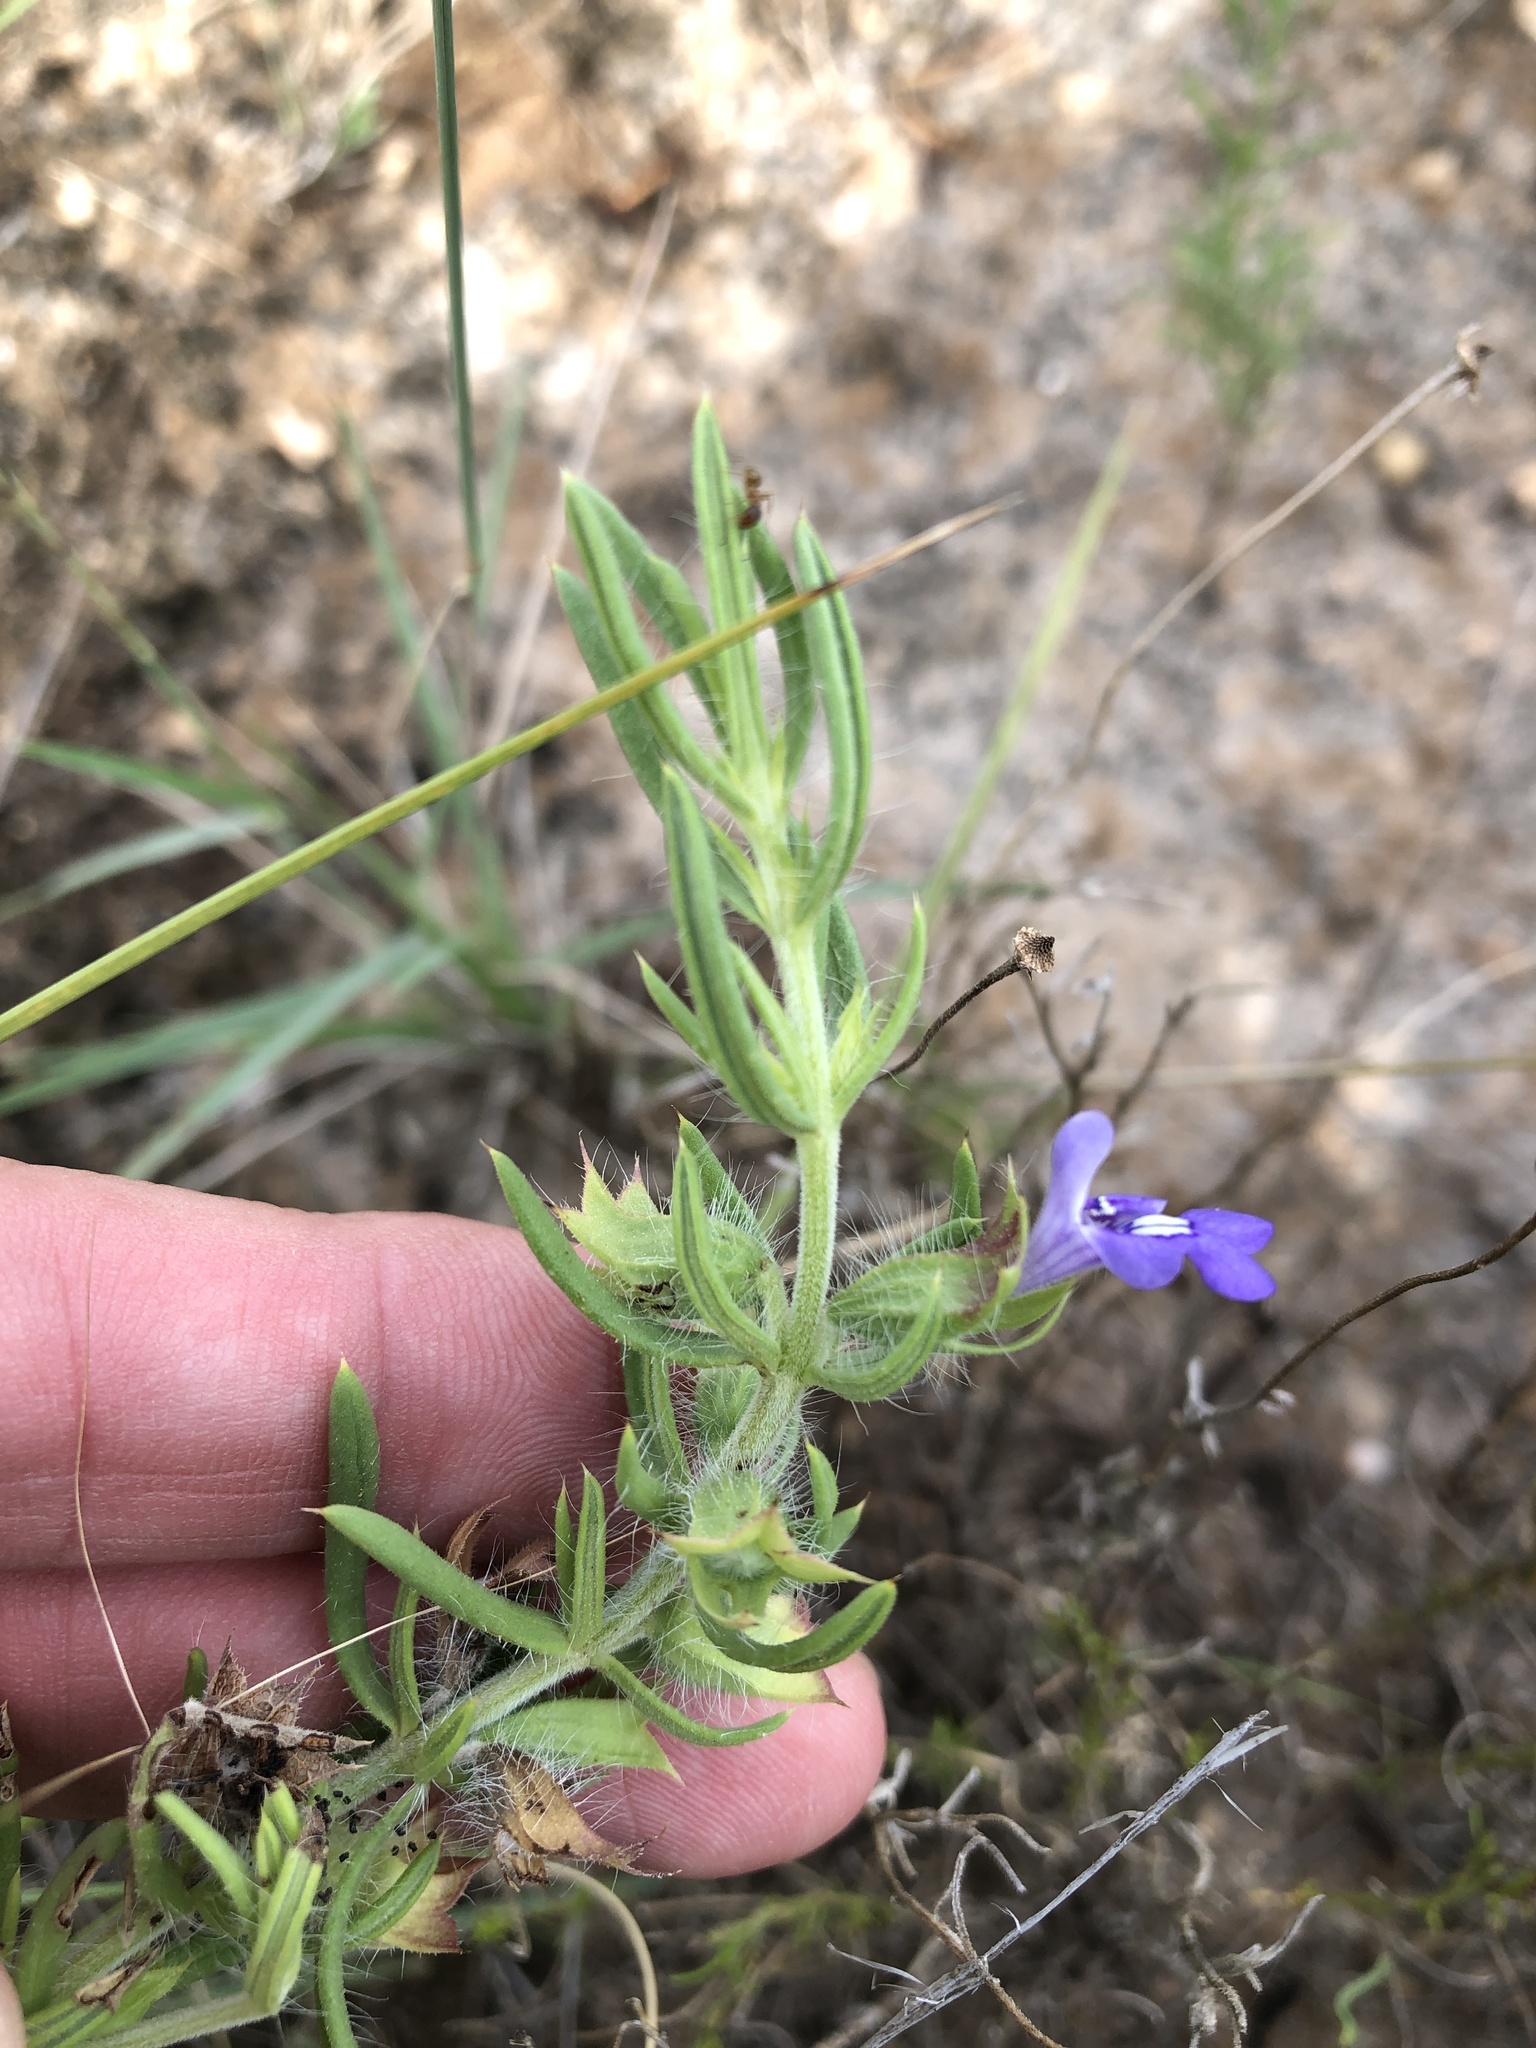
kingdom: Plantae
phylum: Tracheophyta
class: Magnoliopsida
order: Lamiales
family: Lamiaceae
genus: Salvia
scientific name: Salvia texana
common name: Texas sage
